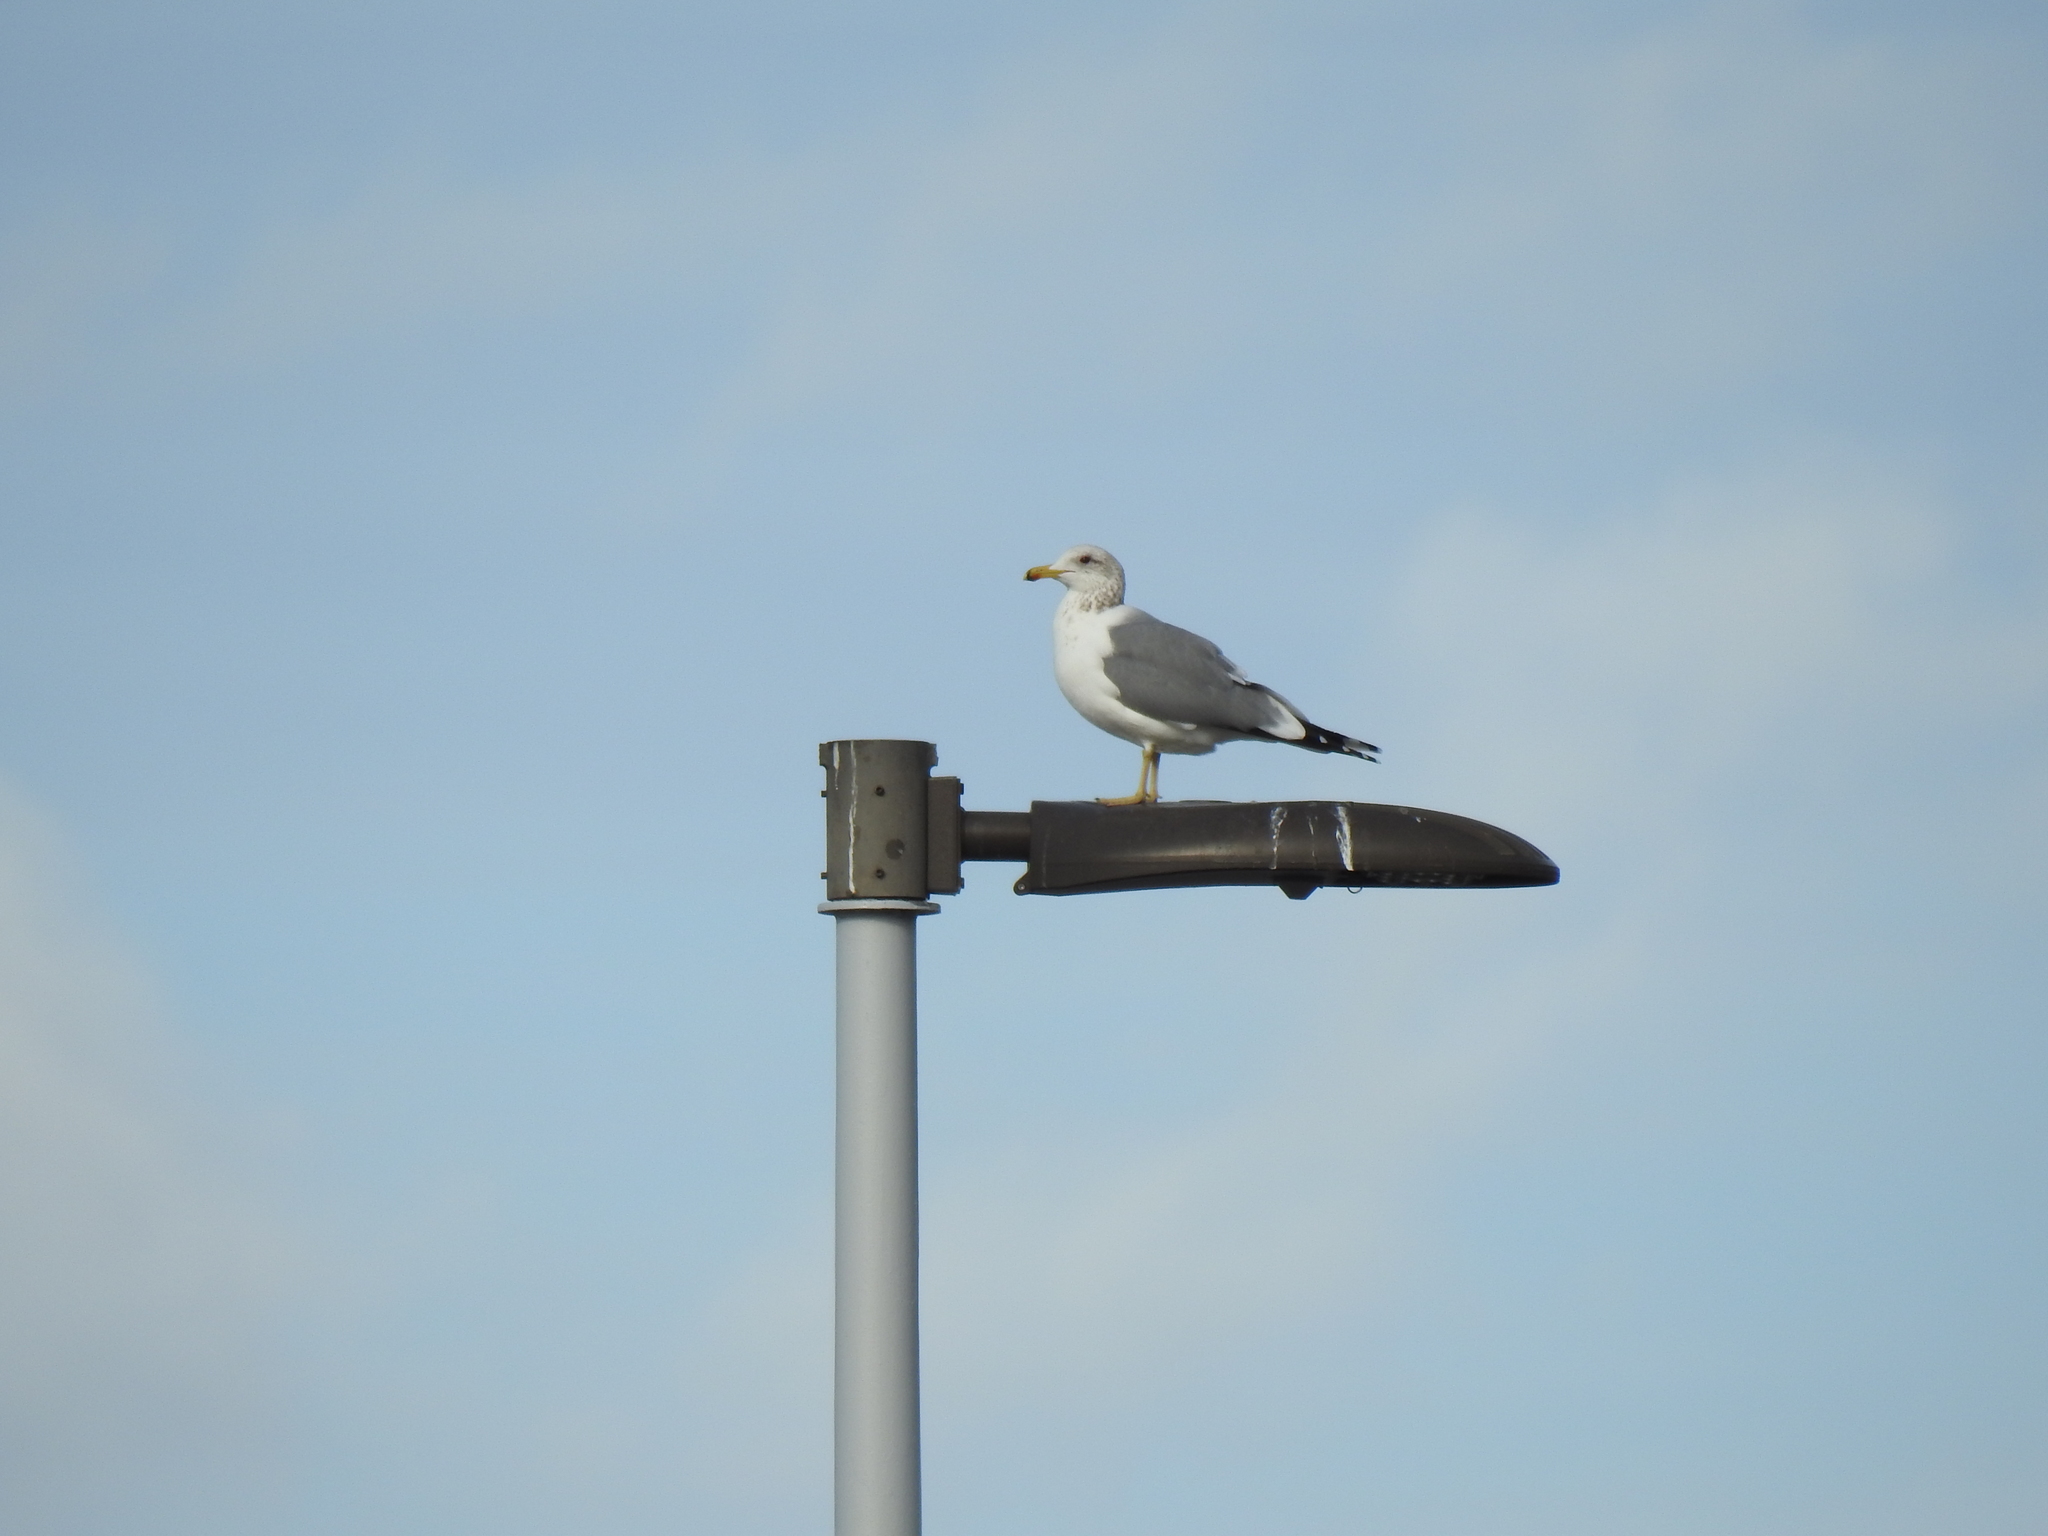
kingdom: Animalia
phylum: Chordata
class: Aves
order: Charadriiformes
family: Laridae
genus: Larus
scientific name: Larus californicus
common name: California gull
